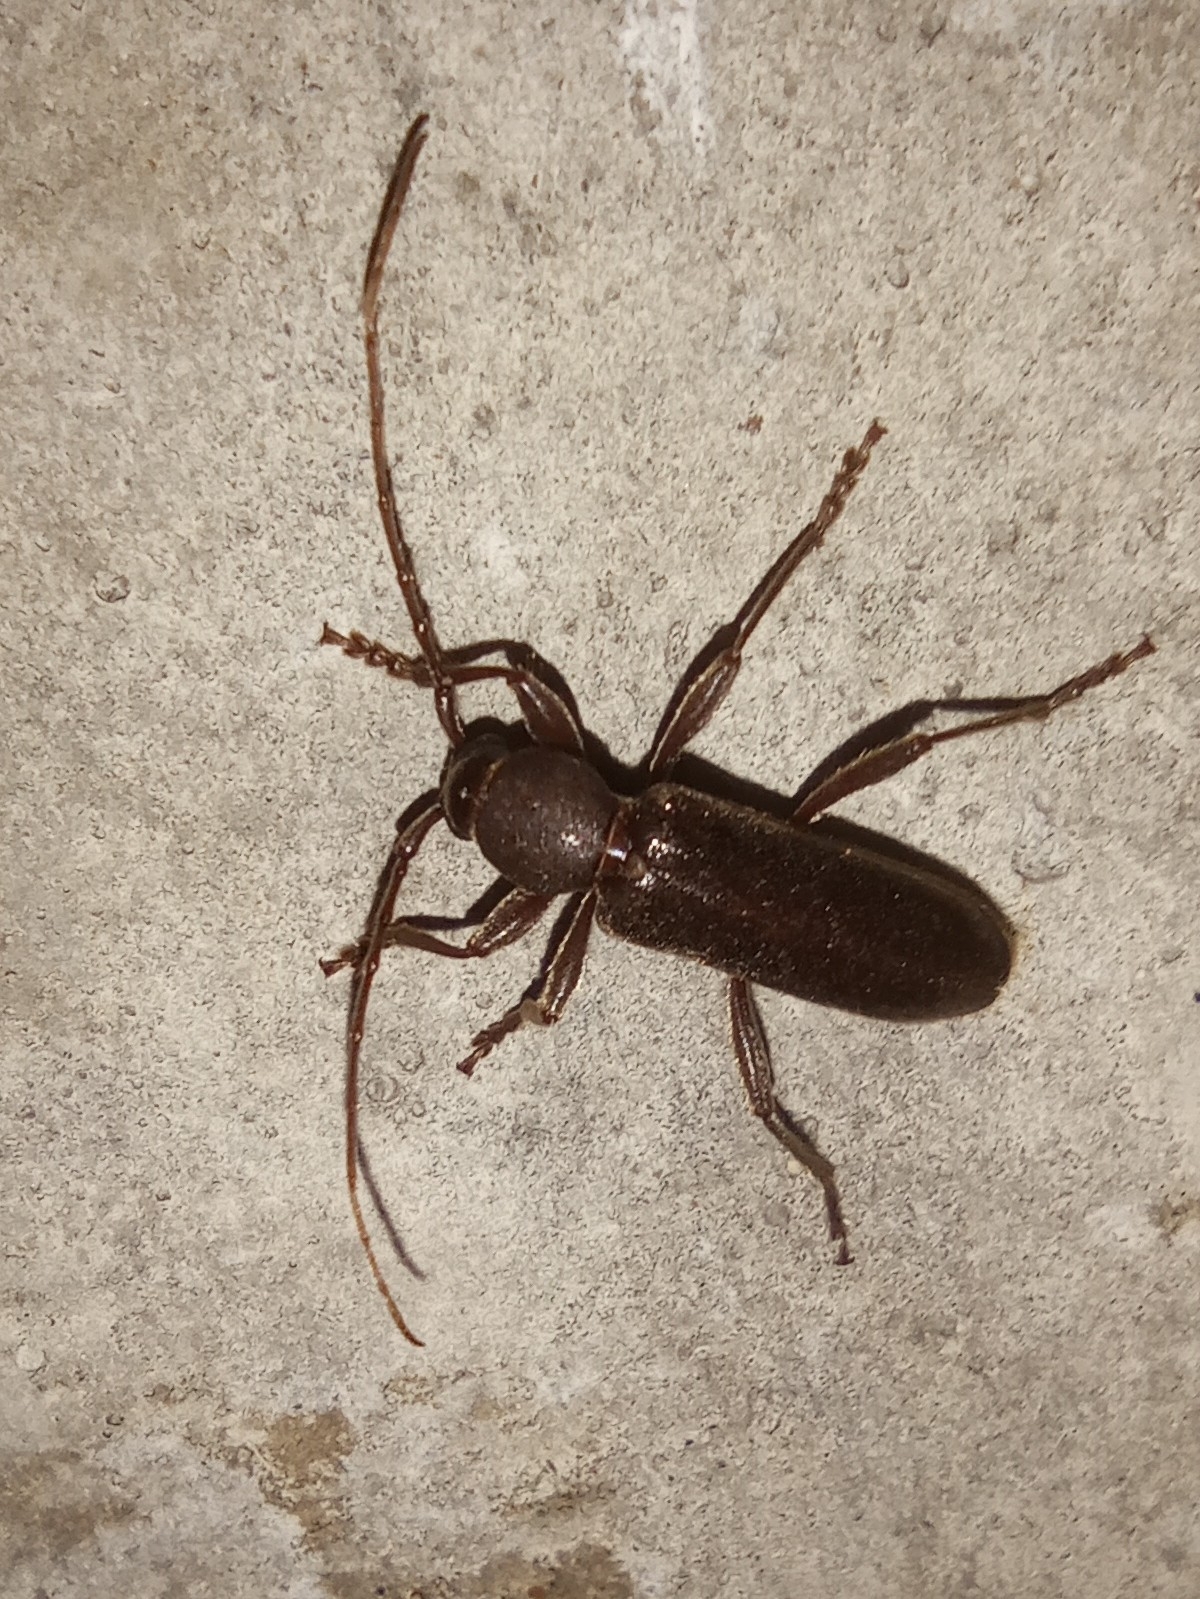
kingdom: Animalia
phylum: Arthropoda
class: Insecta
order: Coleoptera
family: Cerambycidae
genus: Trichoferus
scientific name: Trichoferus campestris
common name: Velvet long horned beetle
